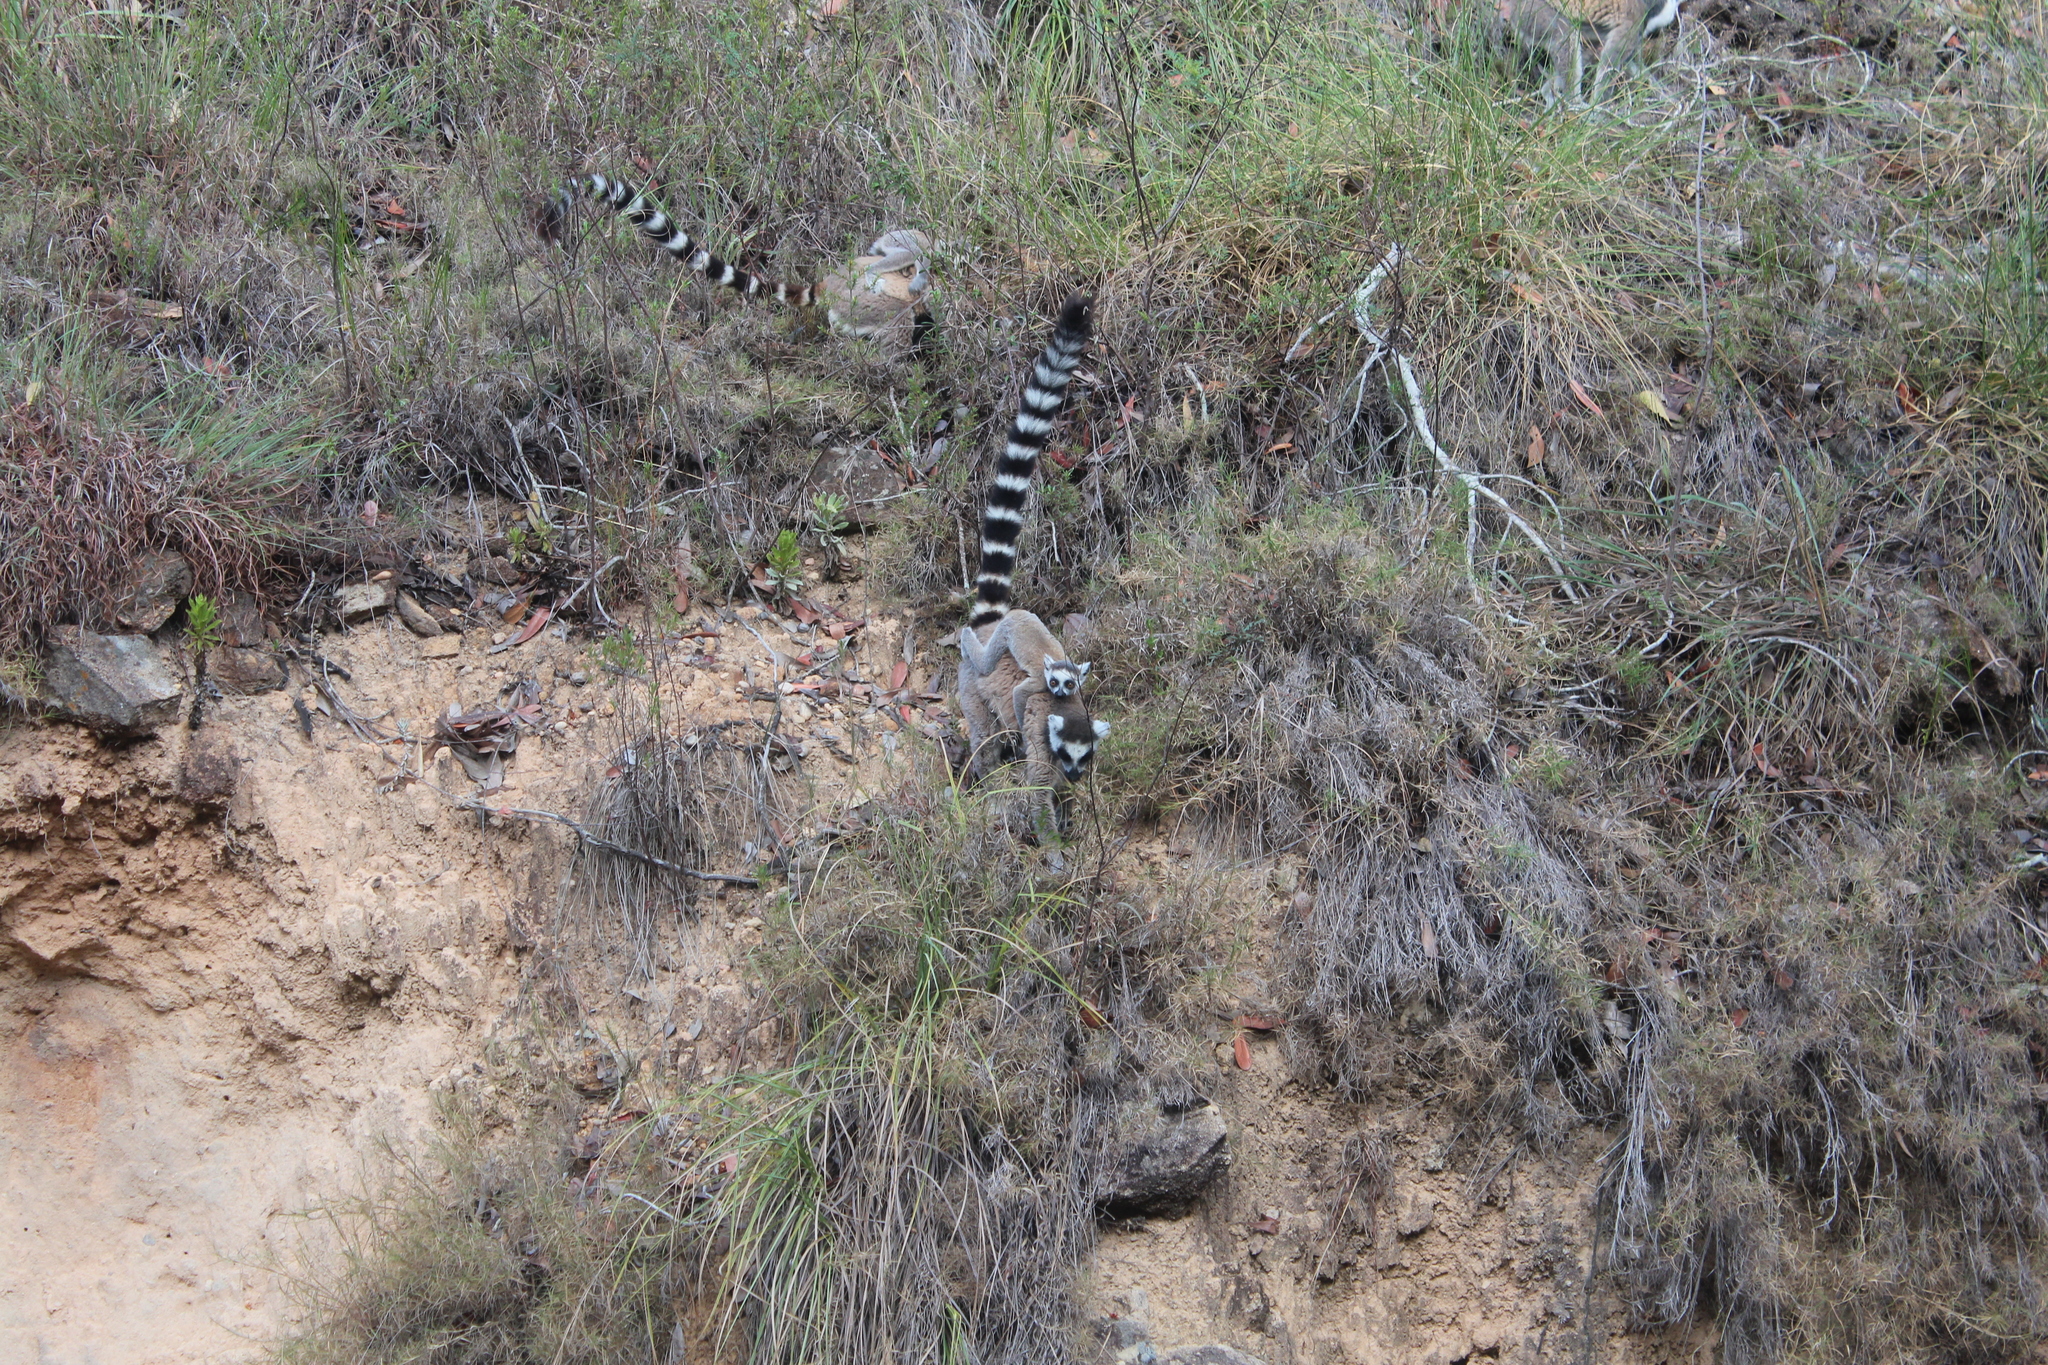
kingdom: Animalia
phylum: Chordata
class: Mammalia
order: Primates
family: Lemuridae
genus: Lemur
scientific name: Lemur catta
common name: Ring-tailed lemur
